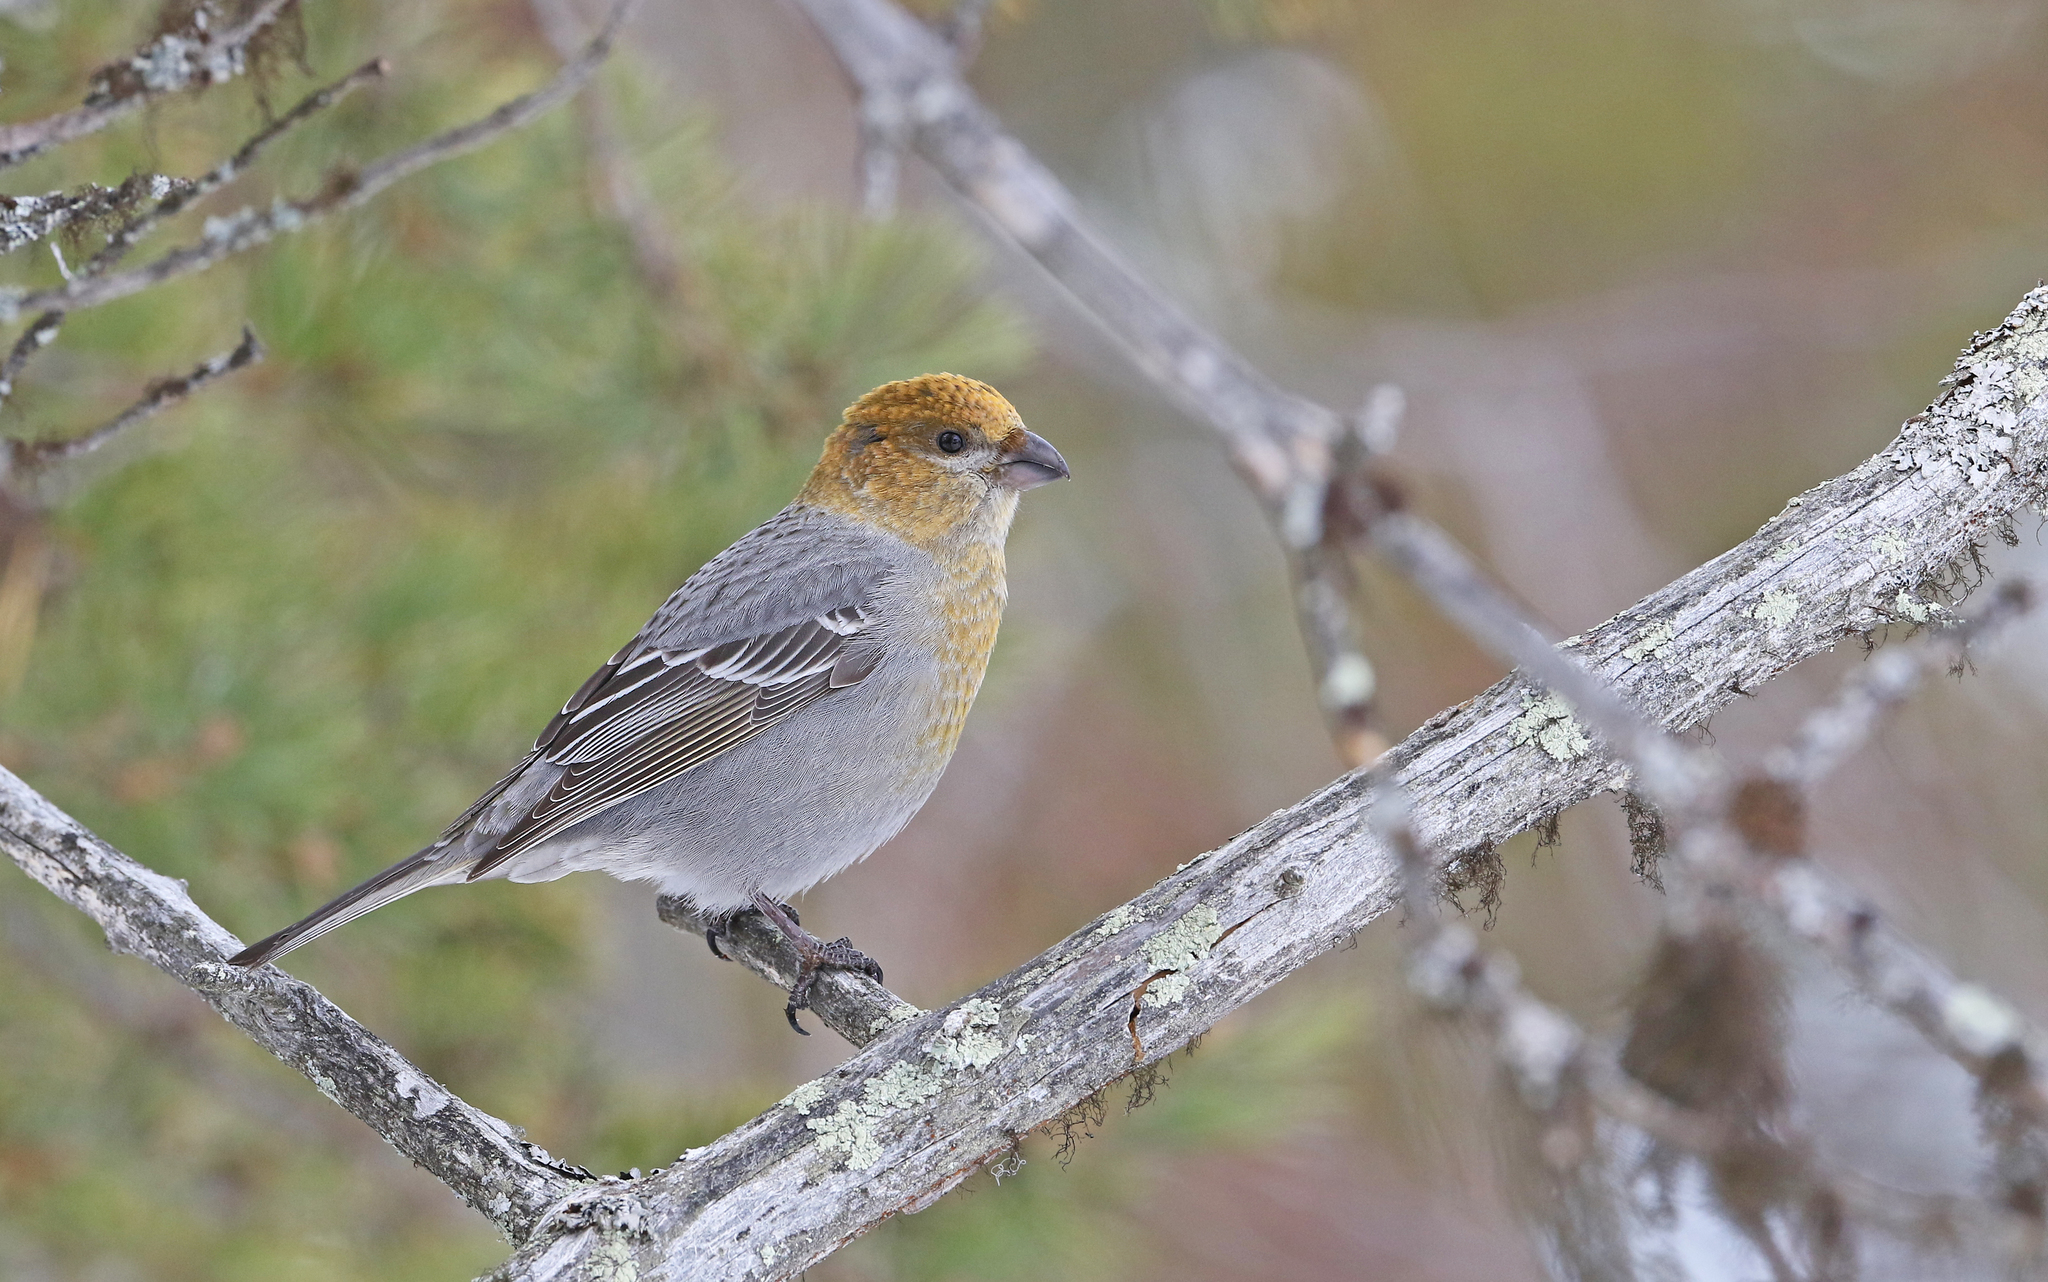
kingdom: Animalia
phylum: Chordata
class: Aves
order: Passeriformes
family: Fringillidae
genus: Pinicola
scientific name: Pinicola enucleator
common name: Pine grosbeak
